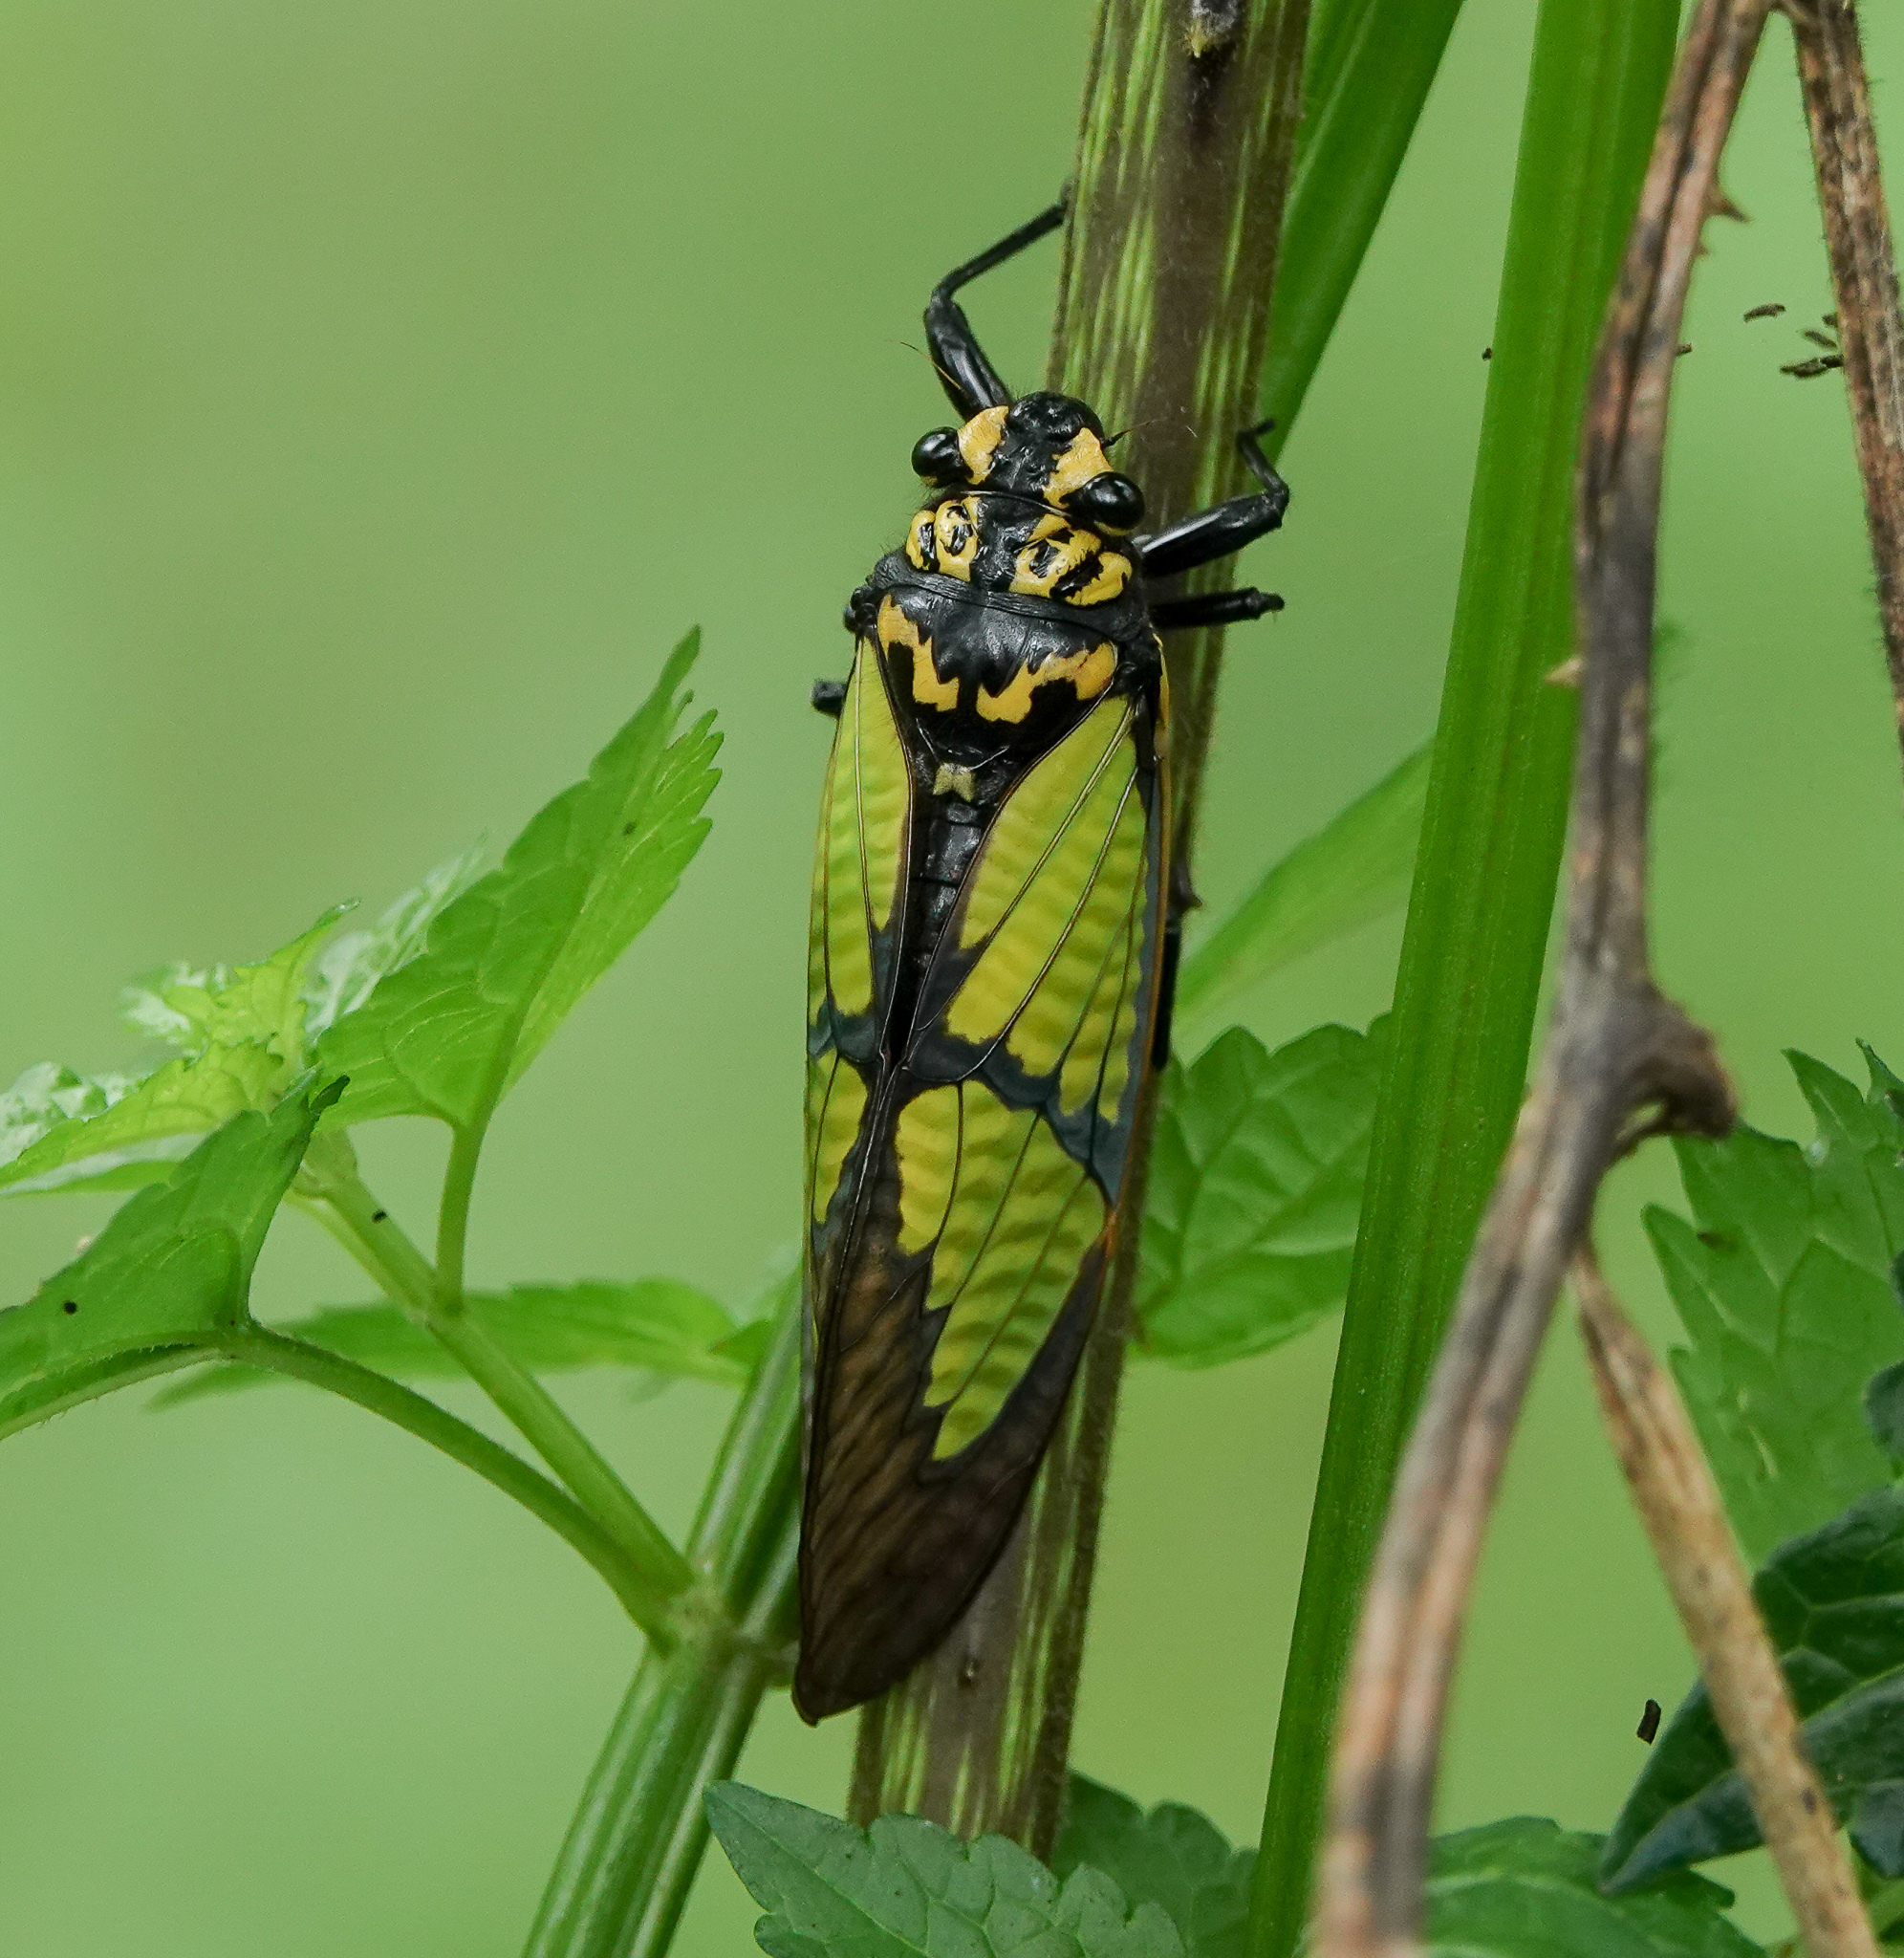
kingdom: Animalia
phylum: Arthropoda
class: Insecta
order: Hemiptera
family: Cicadidae
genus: Sulphogaeana
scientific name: Sulphogaeana sulphurea
